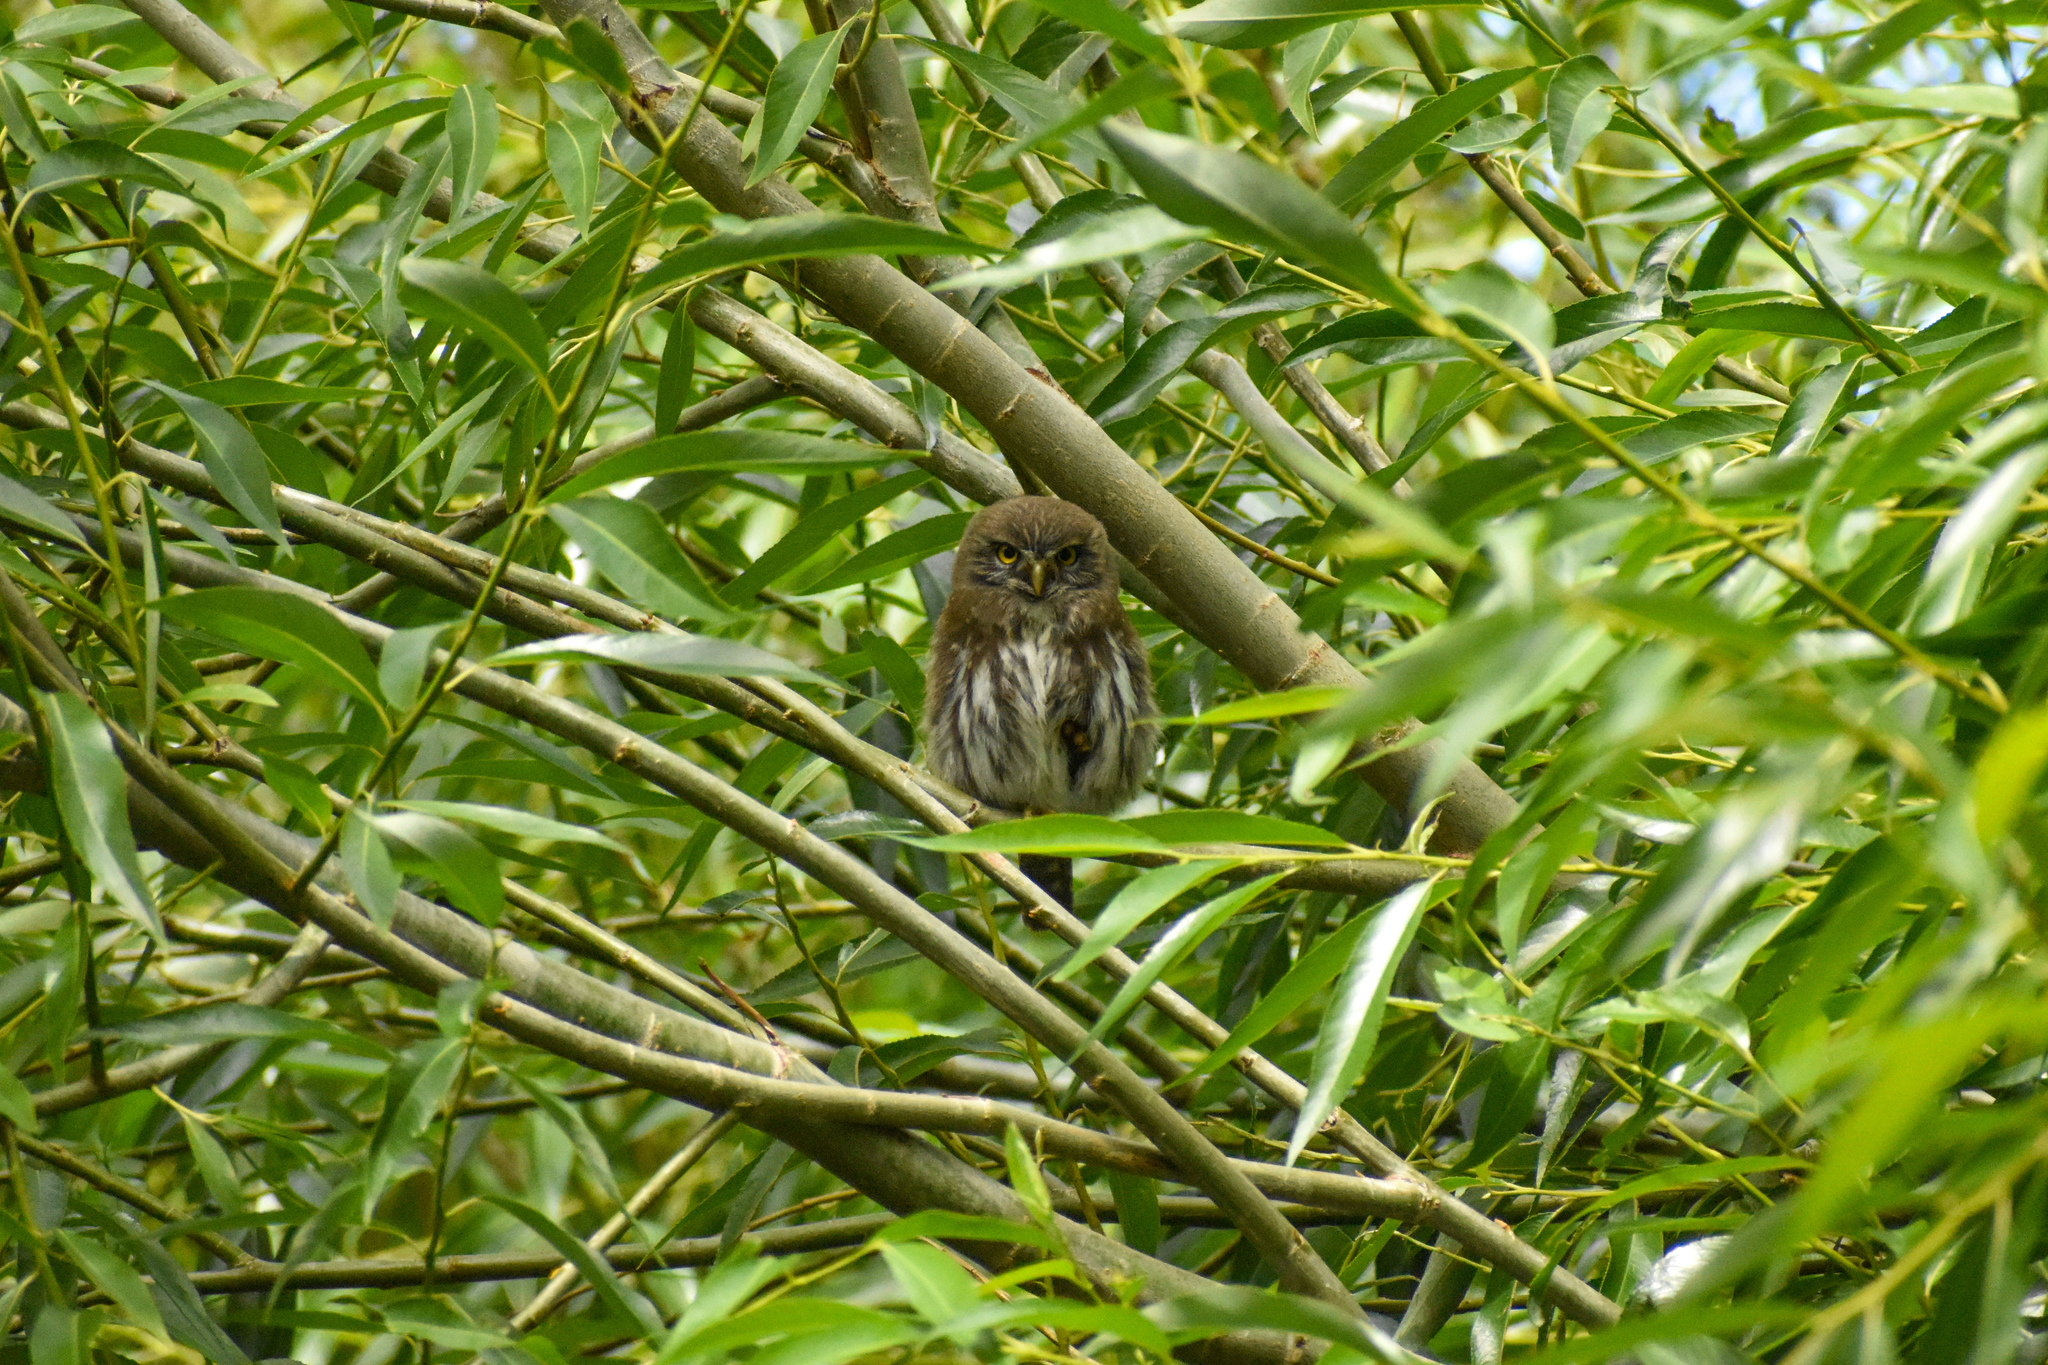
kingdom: Animalia
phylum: Chordata
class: Aves
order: Strigiformes
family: Strigidae
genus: Glaucidium
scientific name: Glaucidium nana
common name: Austral pygmy-owl
